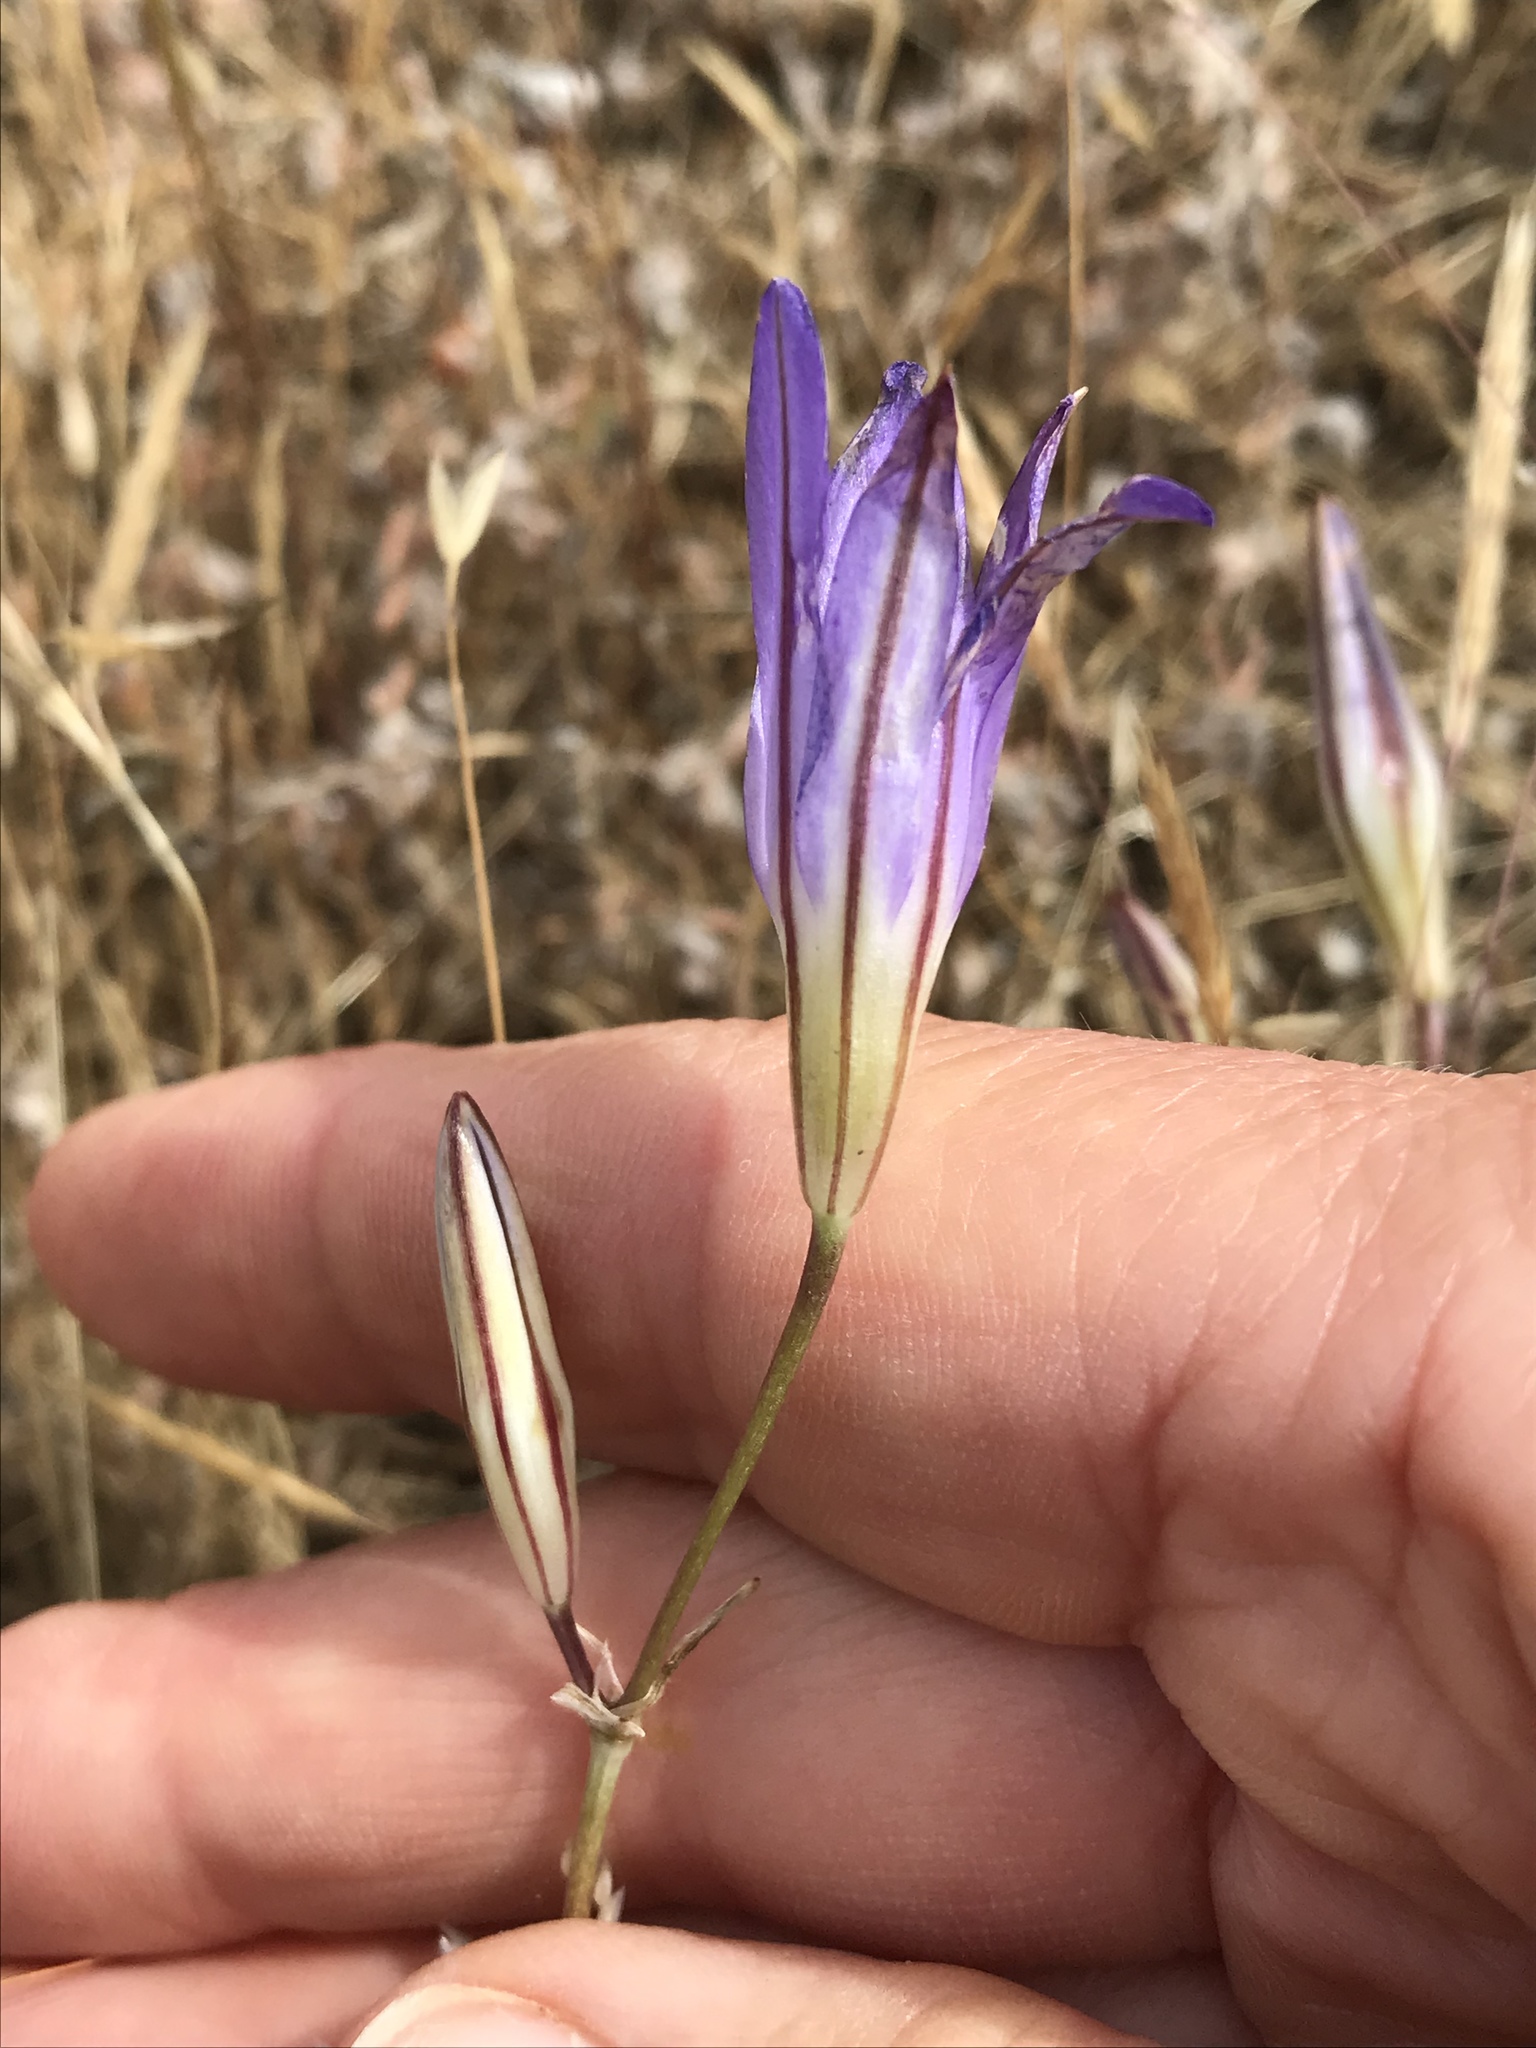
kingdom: Plantae
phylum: Tracheophyta
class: Liliopsida
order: Asparagales
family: Asparagaceae
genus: Brodiaea
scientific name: Brodiaea elegans
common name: Elegant cluster-lily
